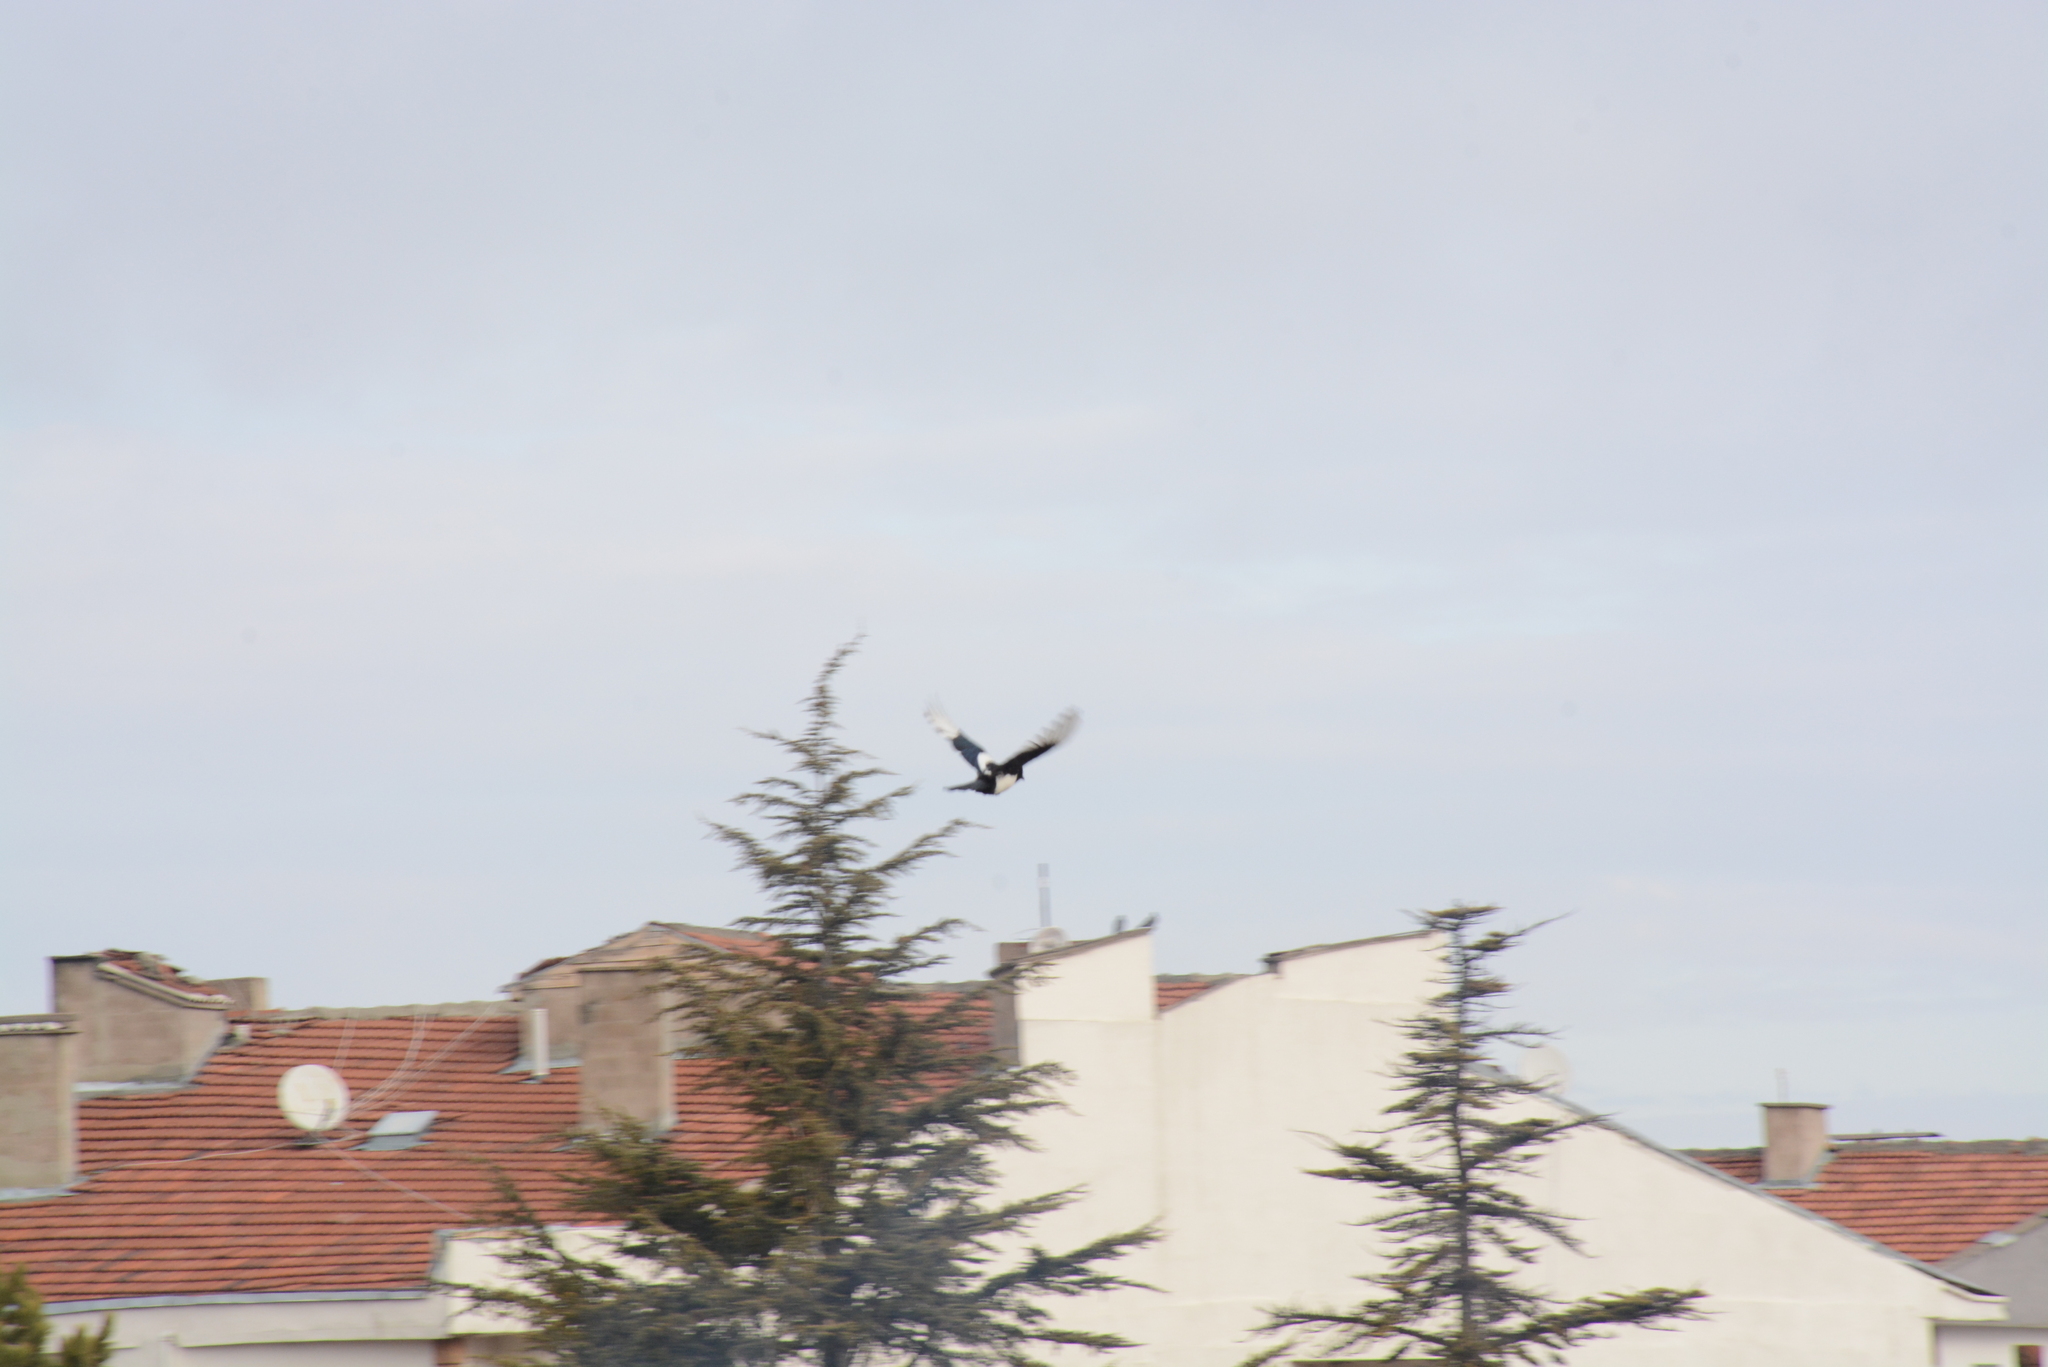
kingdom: Animalia
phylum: Chordata
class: Aves
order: Passeriformes
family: Corvidae
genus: Pica
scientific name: Pica pica
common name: Eurasian magpie
